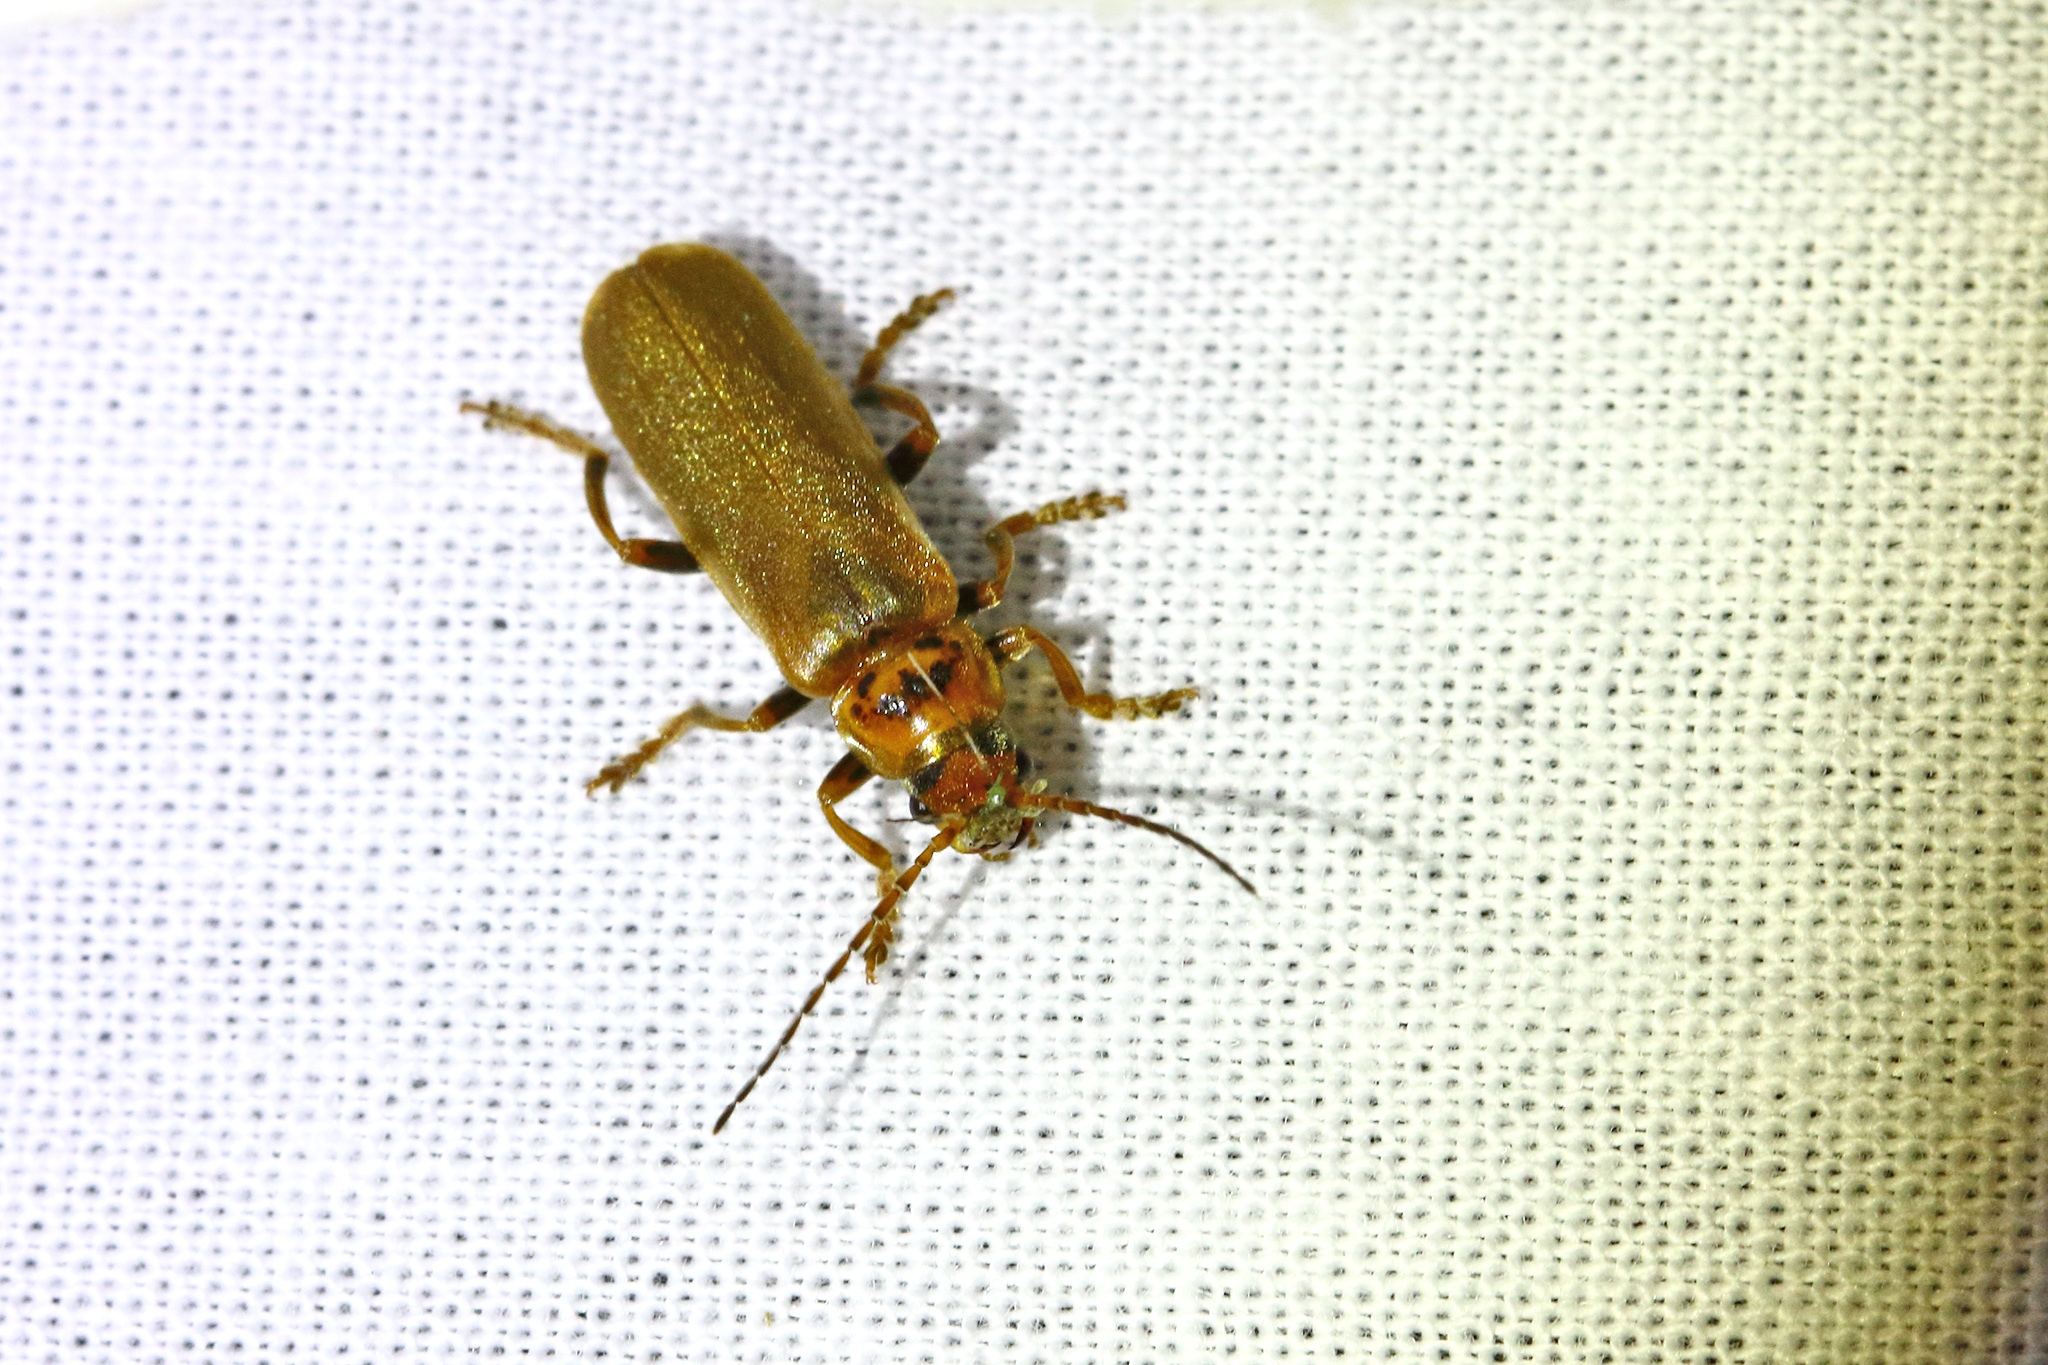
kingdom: Animalia
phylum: Arthropoda
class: Insecta
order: Coleoptera
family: Cantharidae
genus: Cantharis
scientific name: Cantharis rufa
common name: Red-spotted soldier beetle
